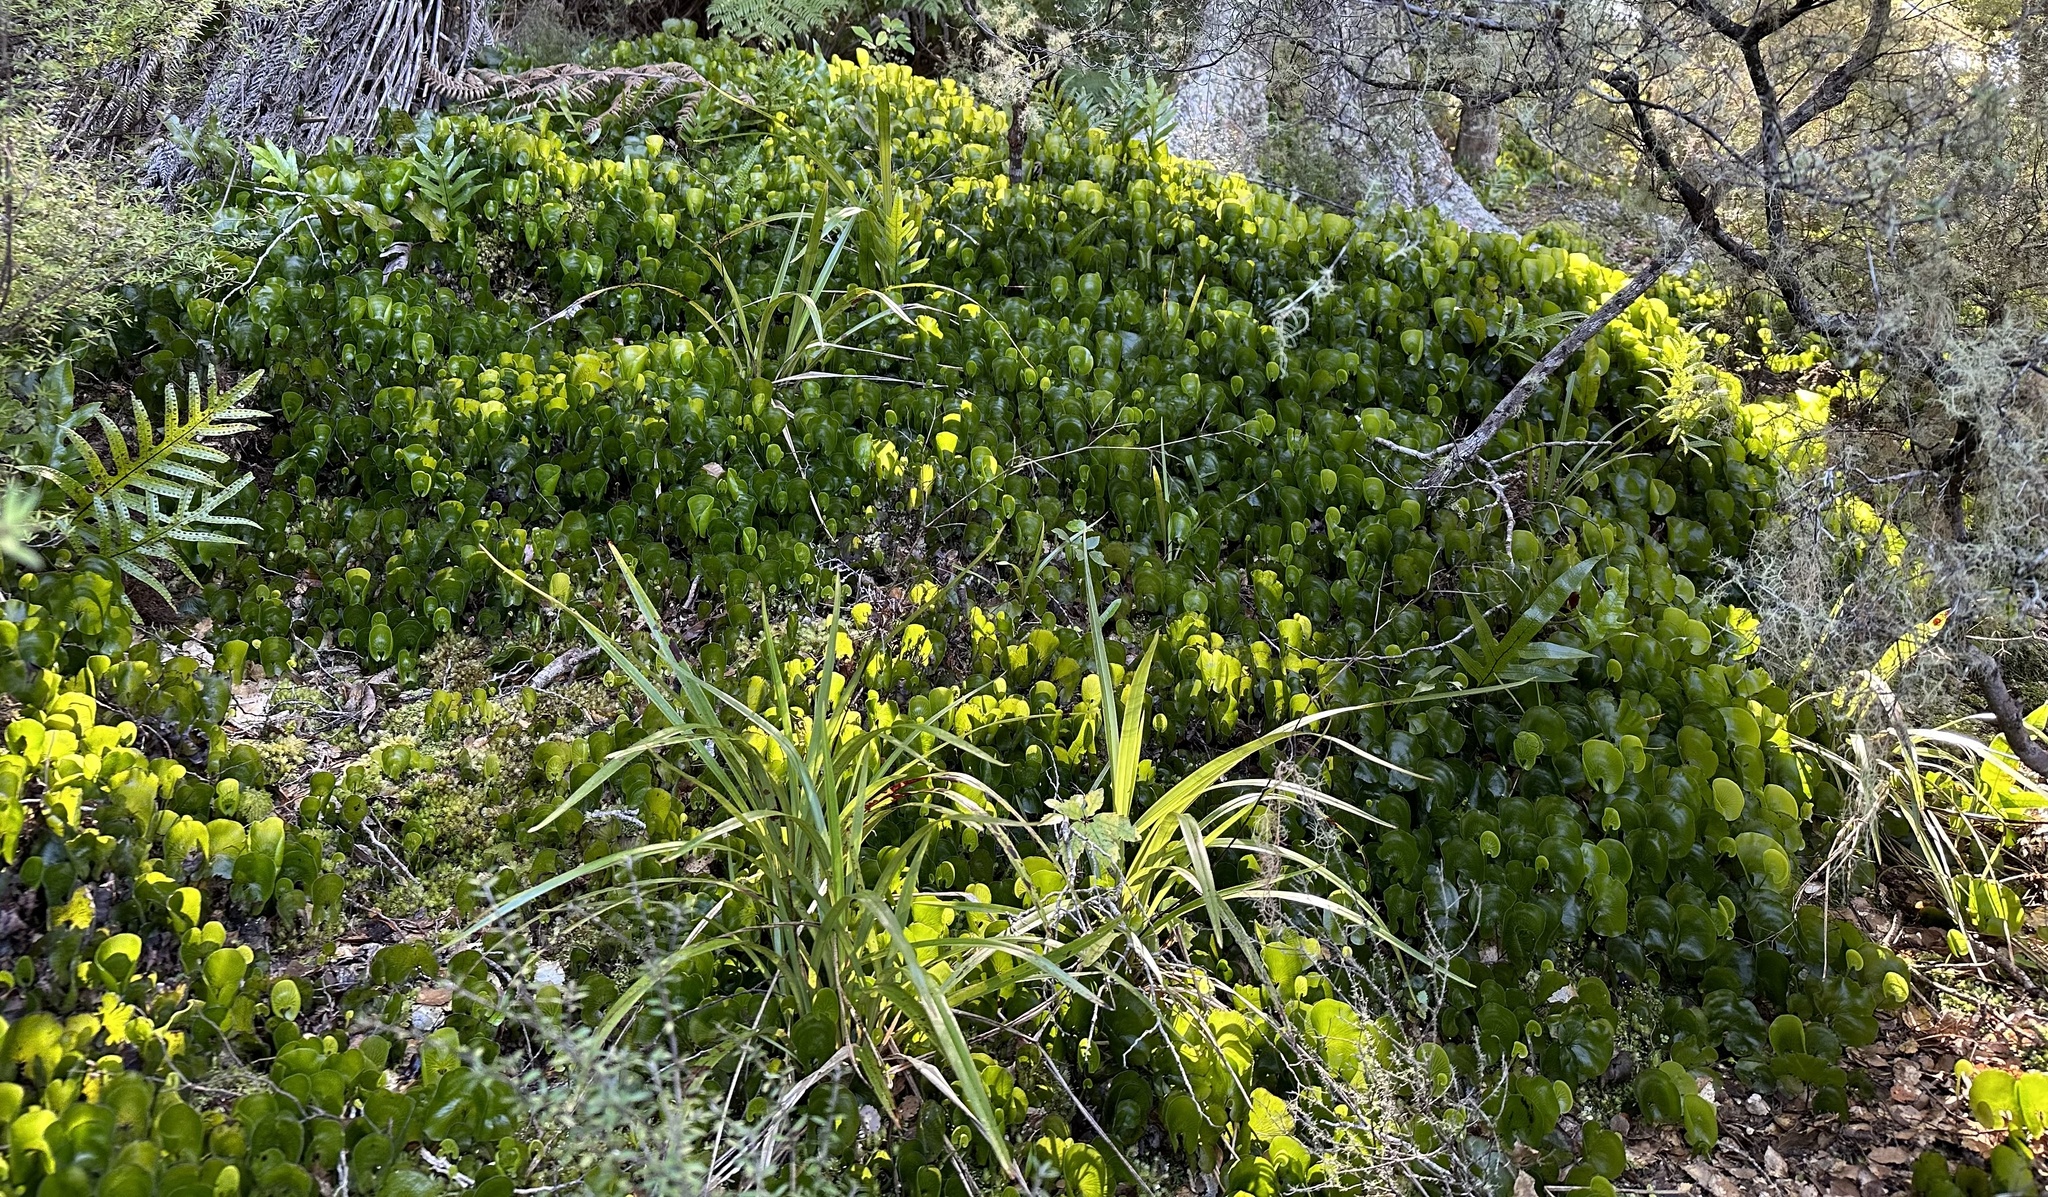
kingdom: Plantae
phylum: Tracheophyta
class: Polypodiopsida
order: Hymenophyllales
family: Hymenophyllaceae
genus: Hymenophyllum
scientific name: Hymenophyllum nephrophyllum
